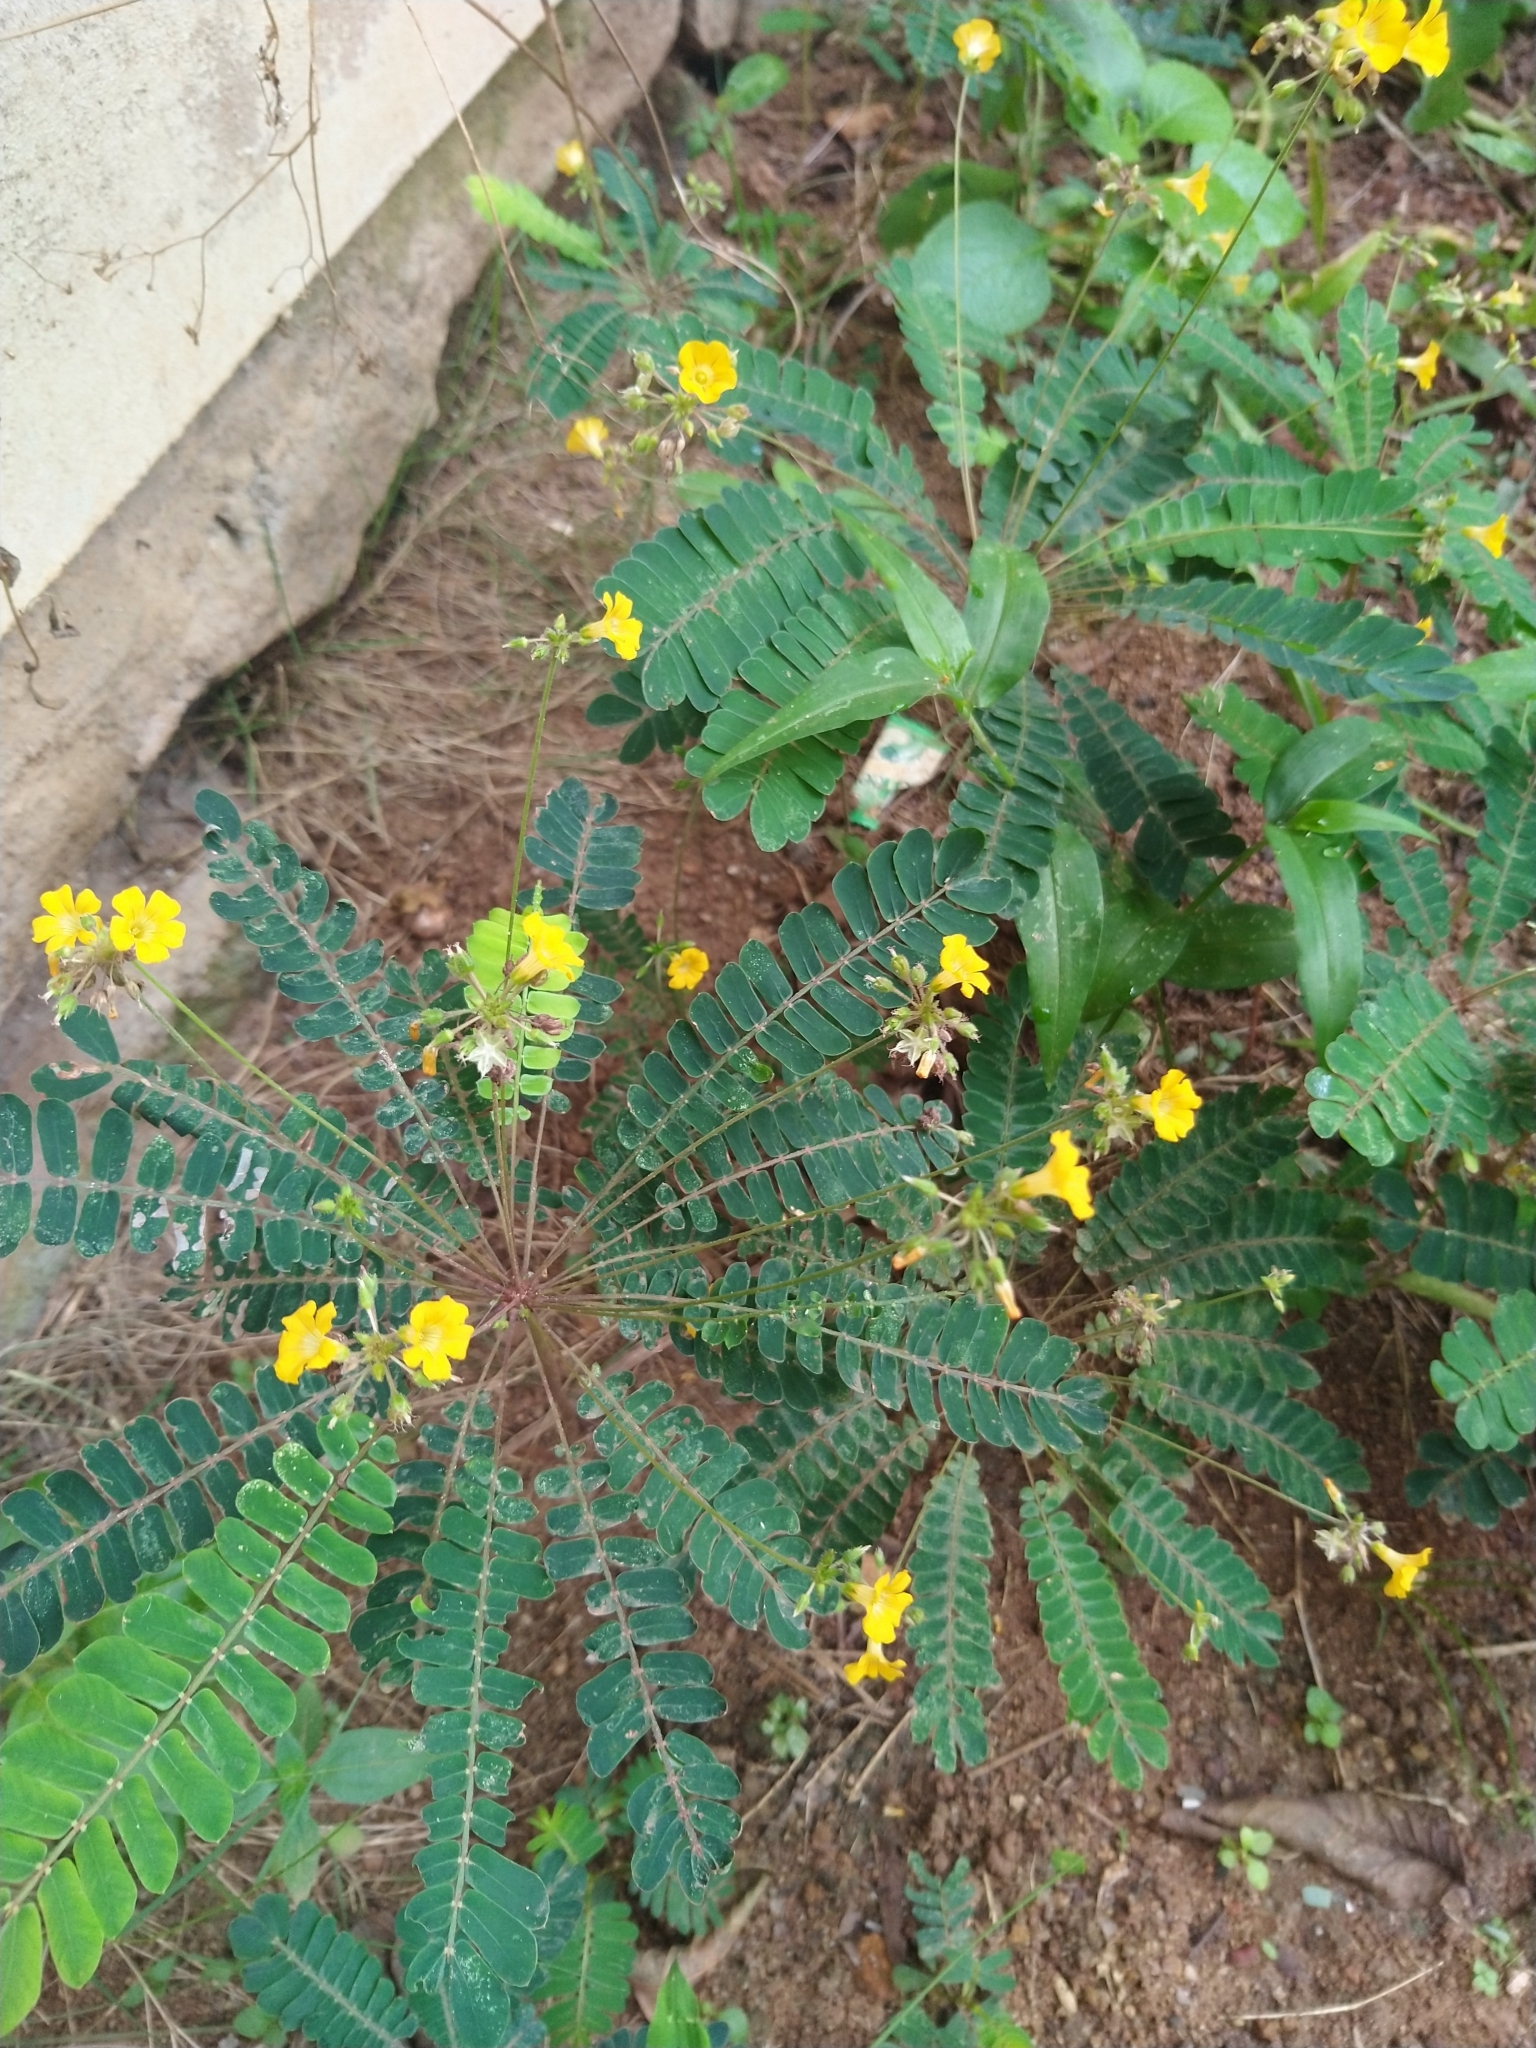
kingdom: Plantae
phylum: Tracheophyta
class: Magnoliopsida
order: Oxalidales
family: Oxalidaceae
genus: Biophytum
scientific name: Biophytum sensitivum
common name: Lifeplant
